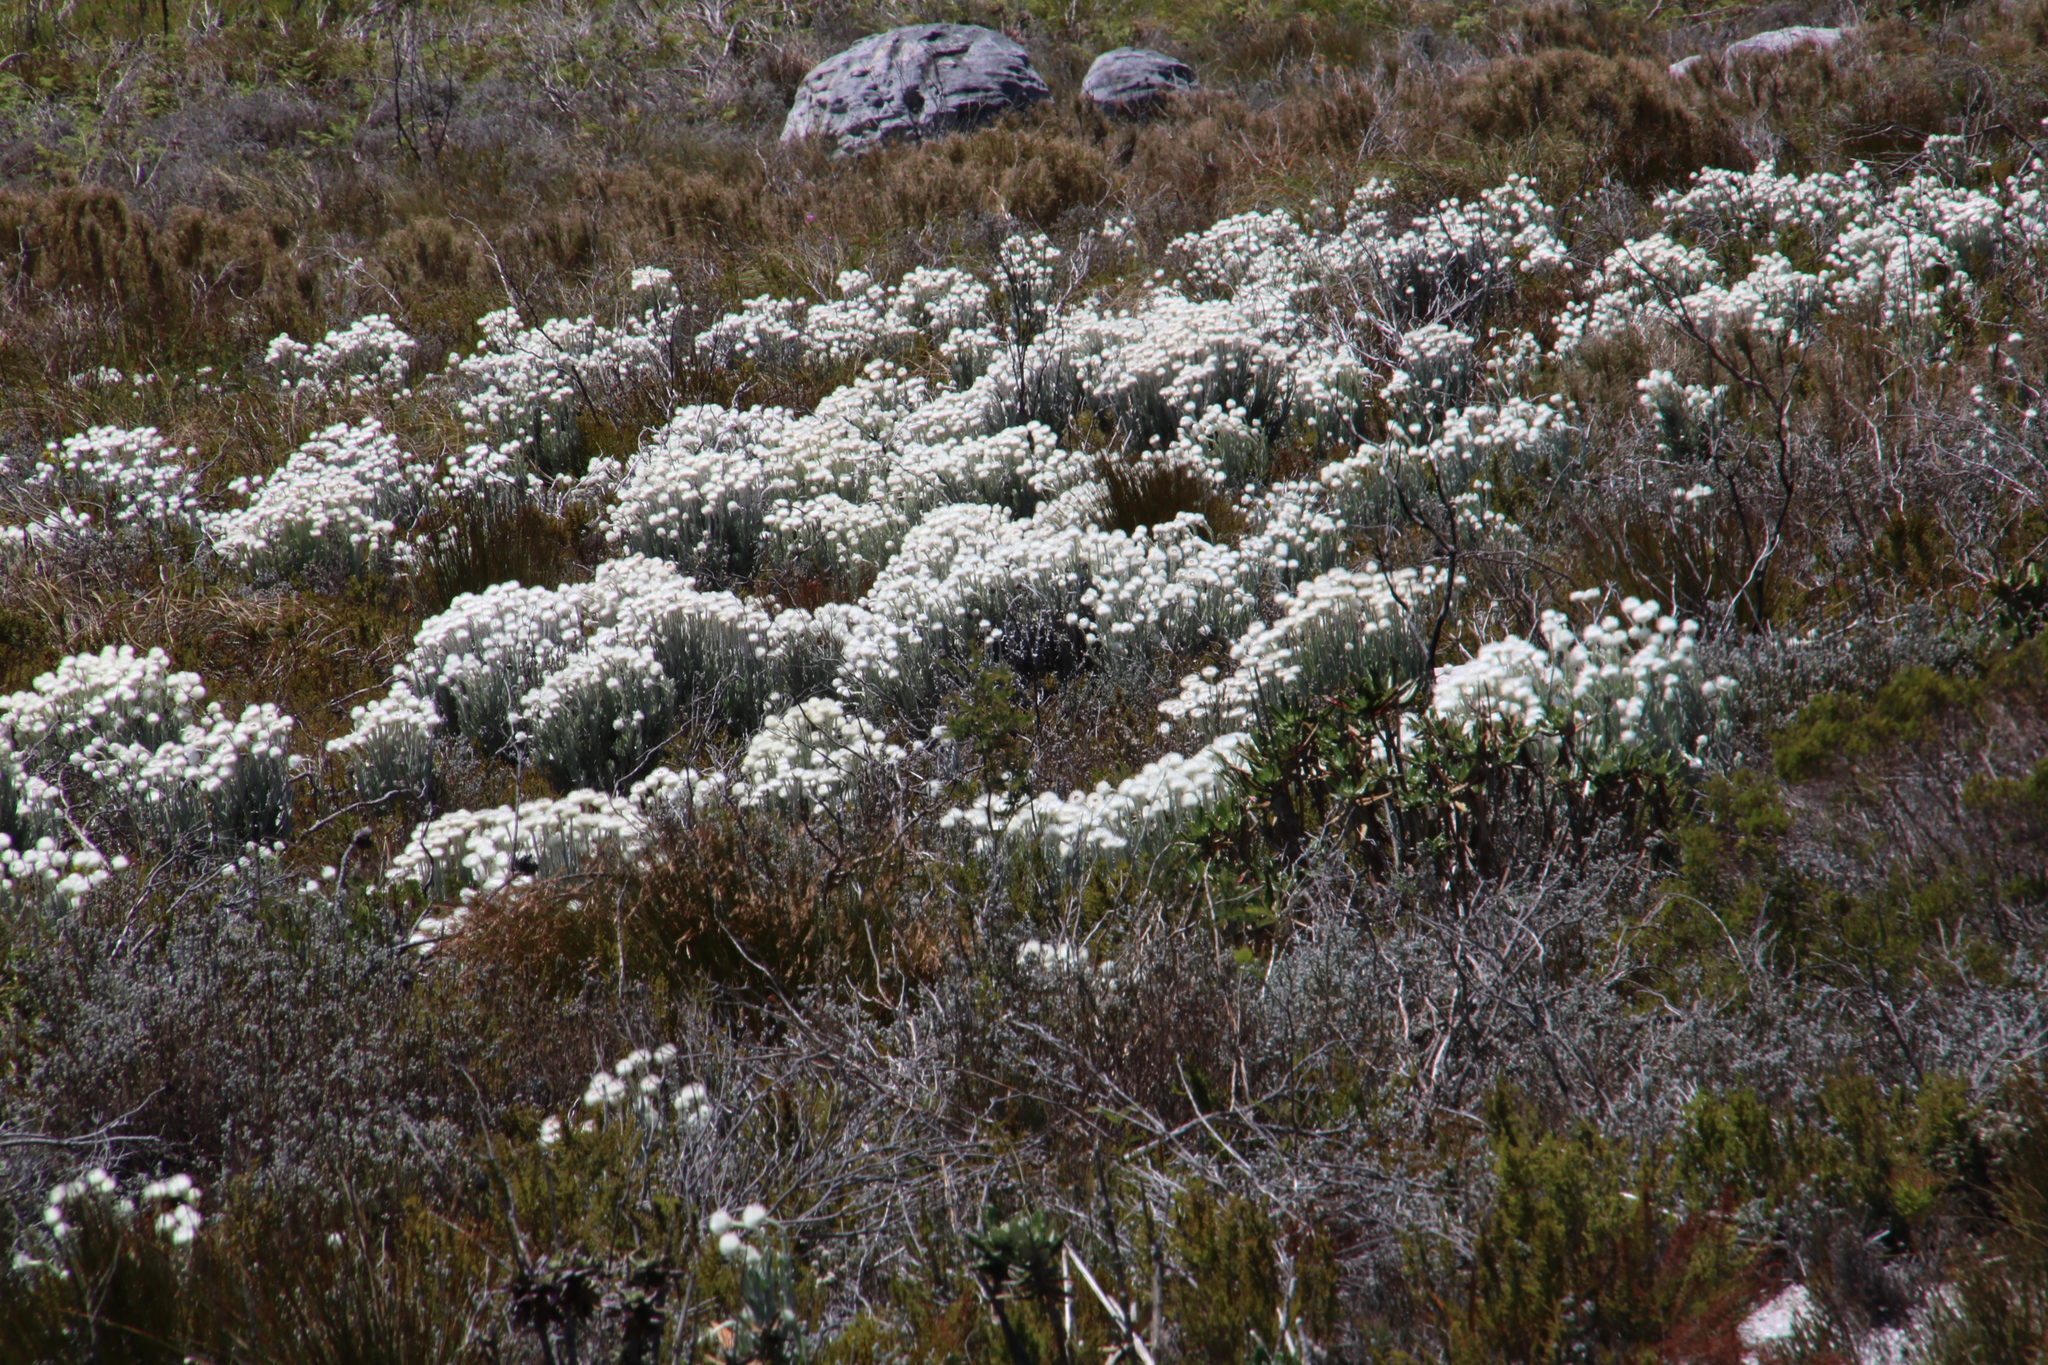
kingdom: Plantae
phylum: Tracheophyta
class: Magnoliopsida
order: Asterales
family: Asteraceae
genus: Syncarpha
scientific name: Syncarpha vestita
